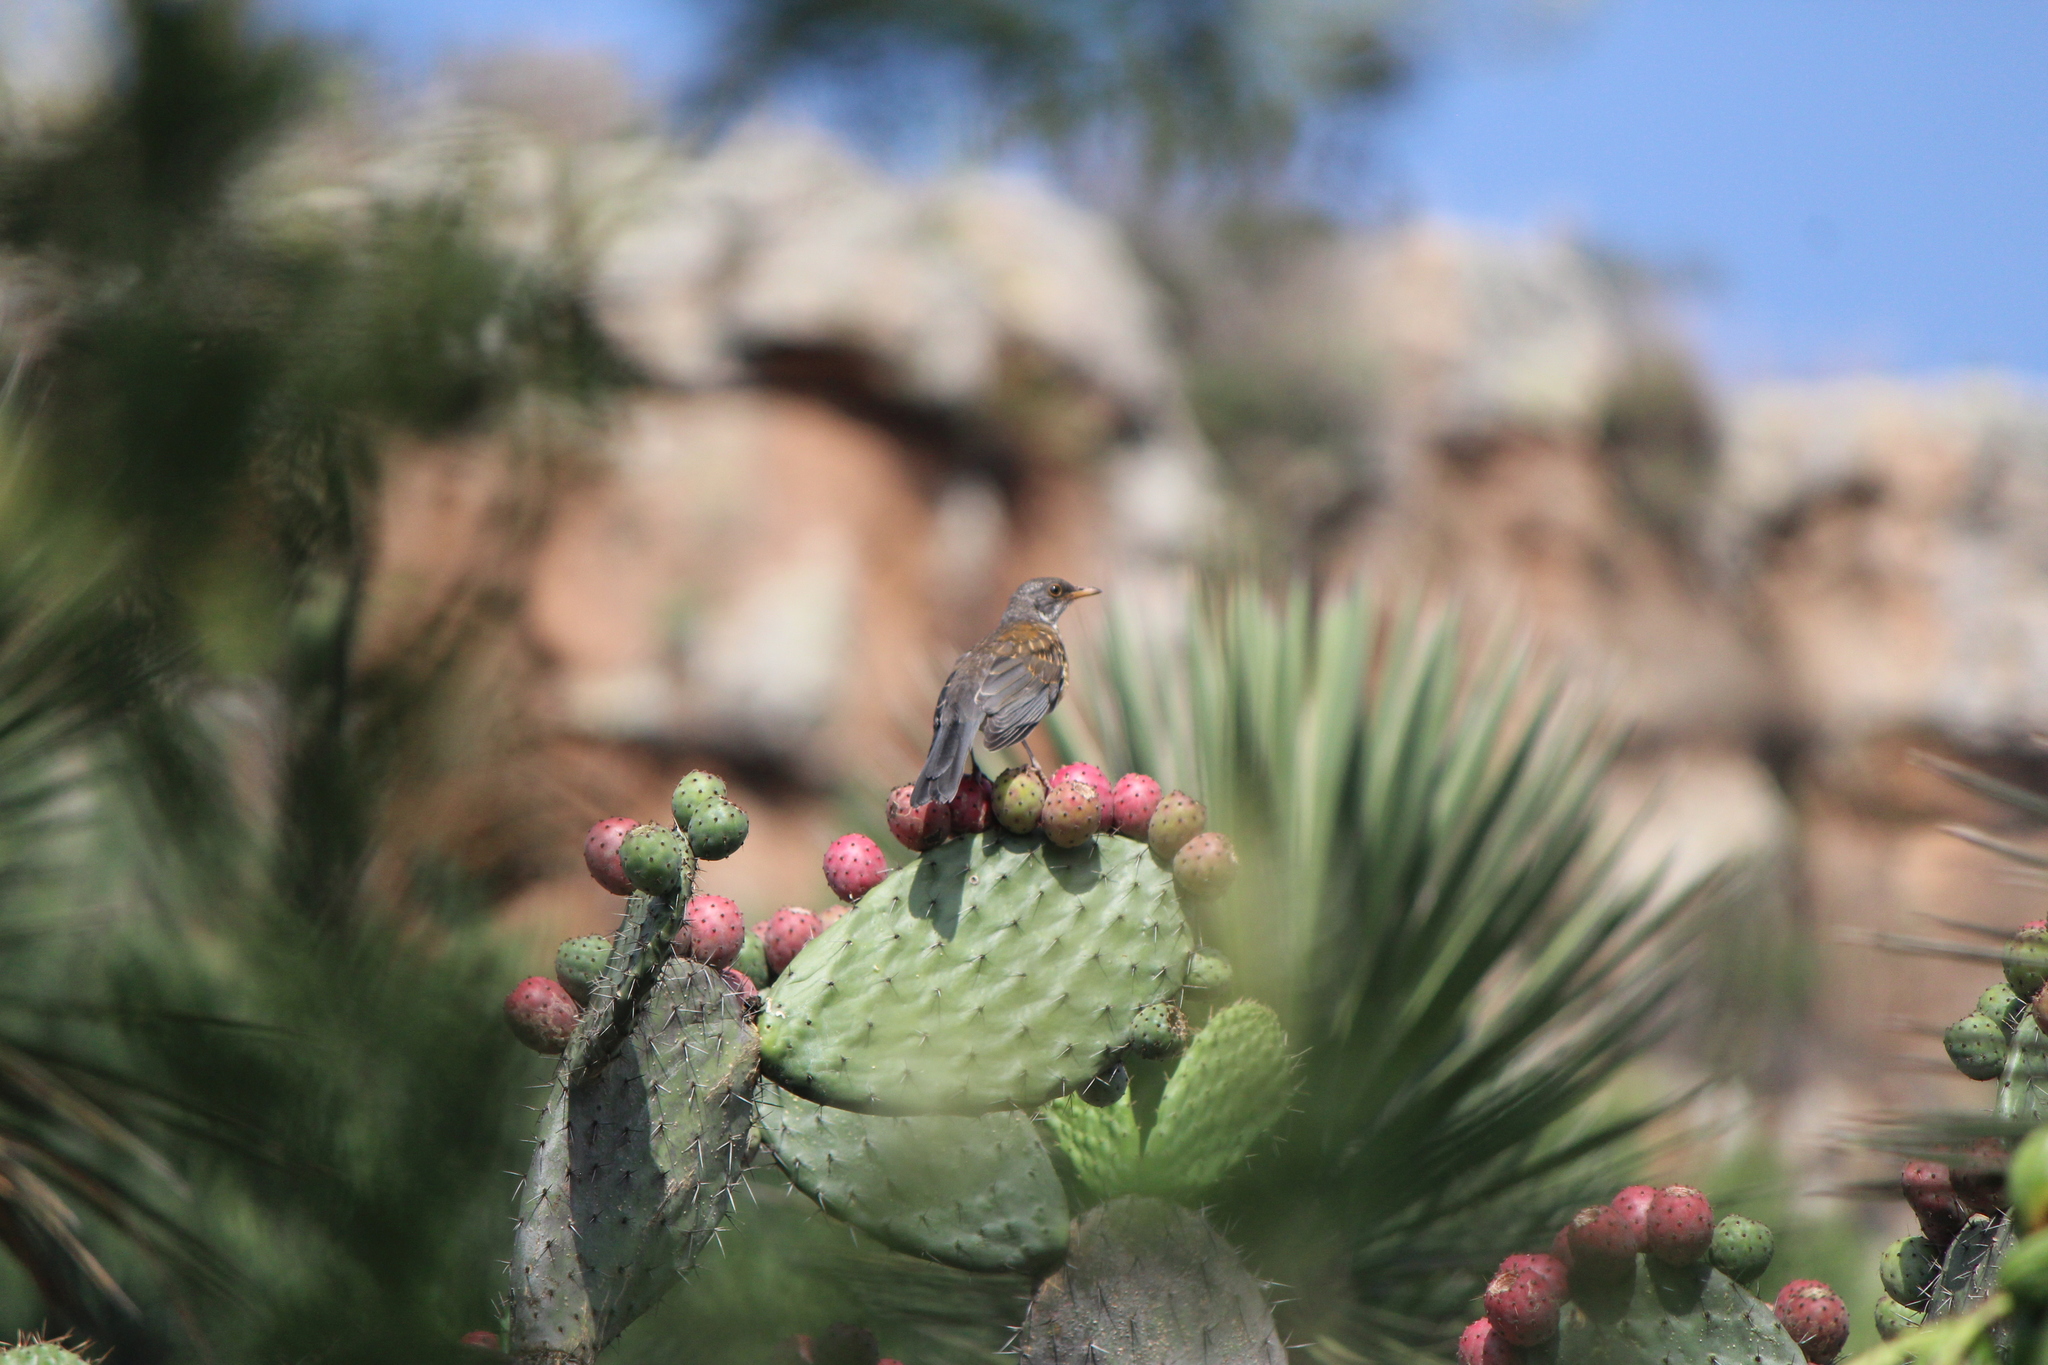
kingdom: Animalia
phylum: Chordata
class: Aves
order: Passeriformes
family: Turdidae
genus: Turdus
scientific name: Turdus rufopalliatus
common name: Rufous-backed robin
